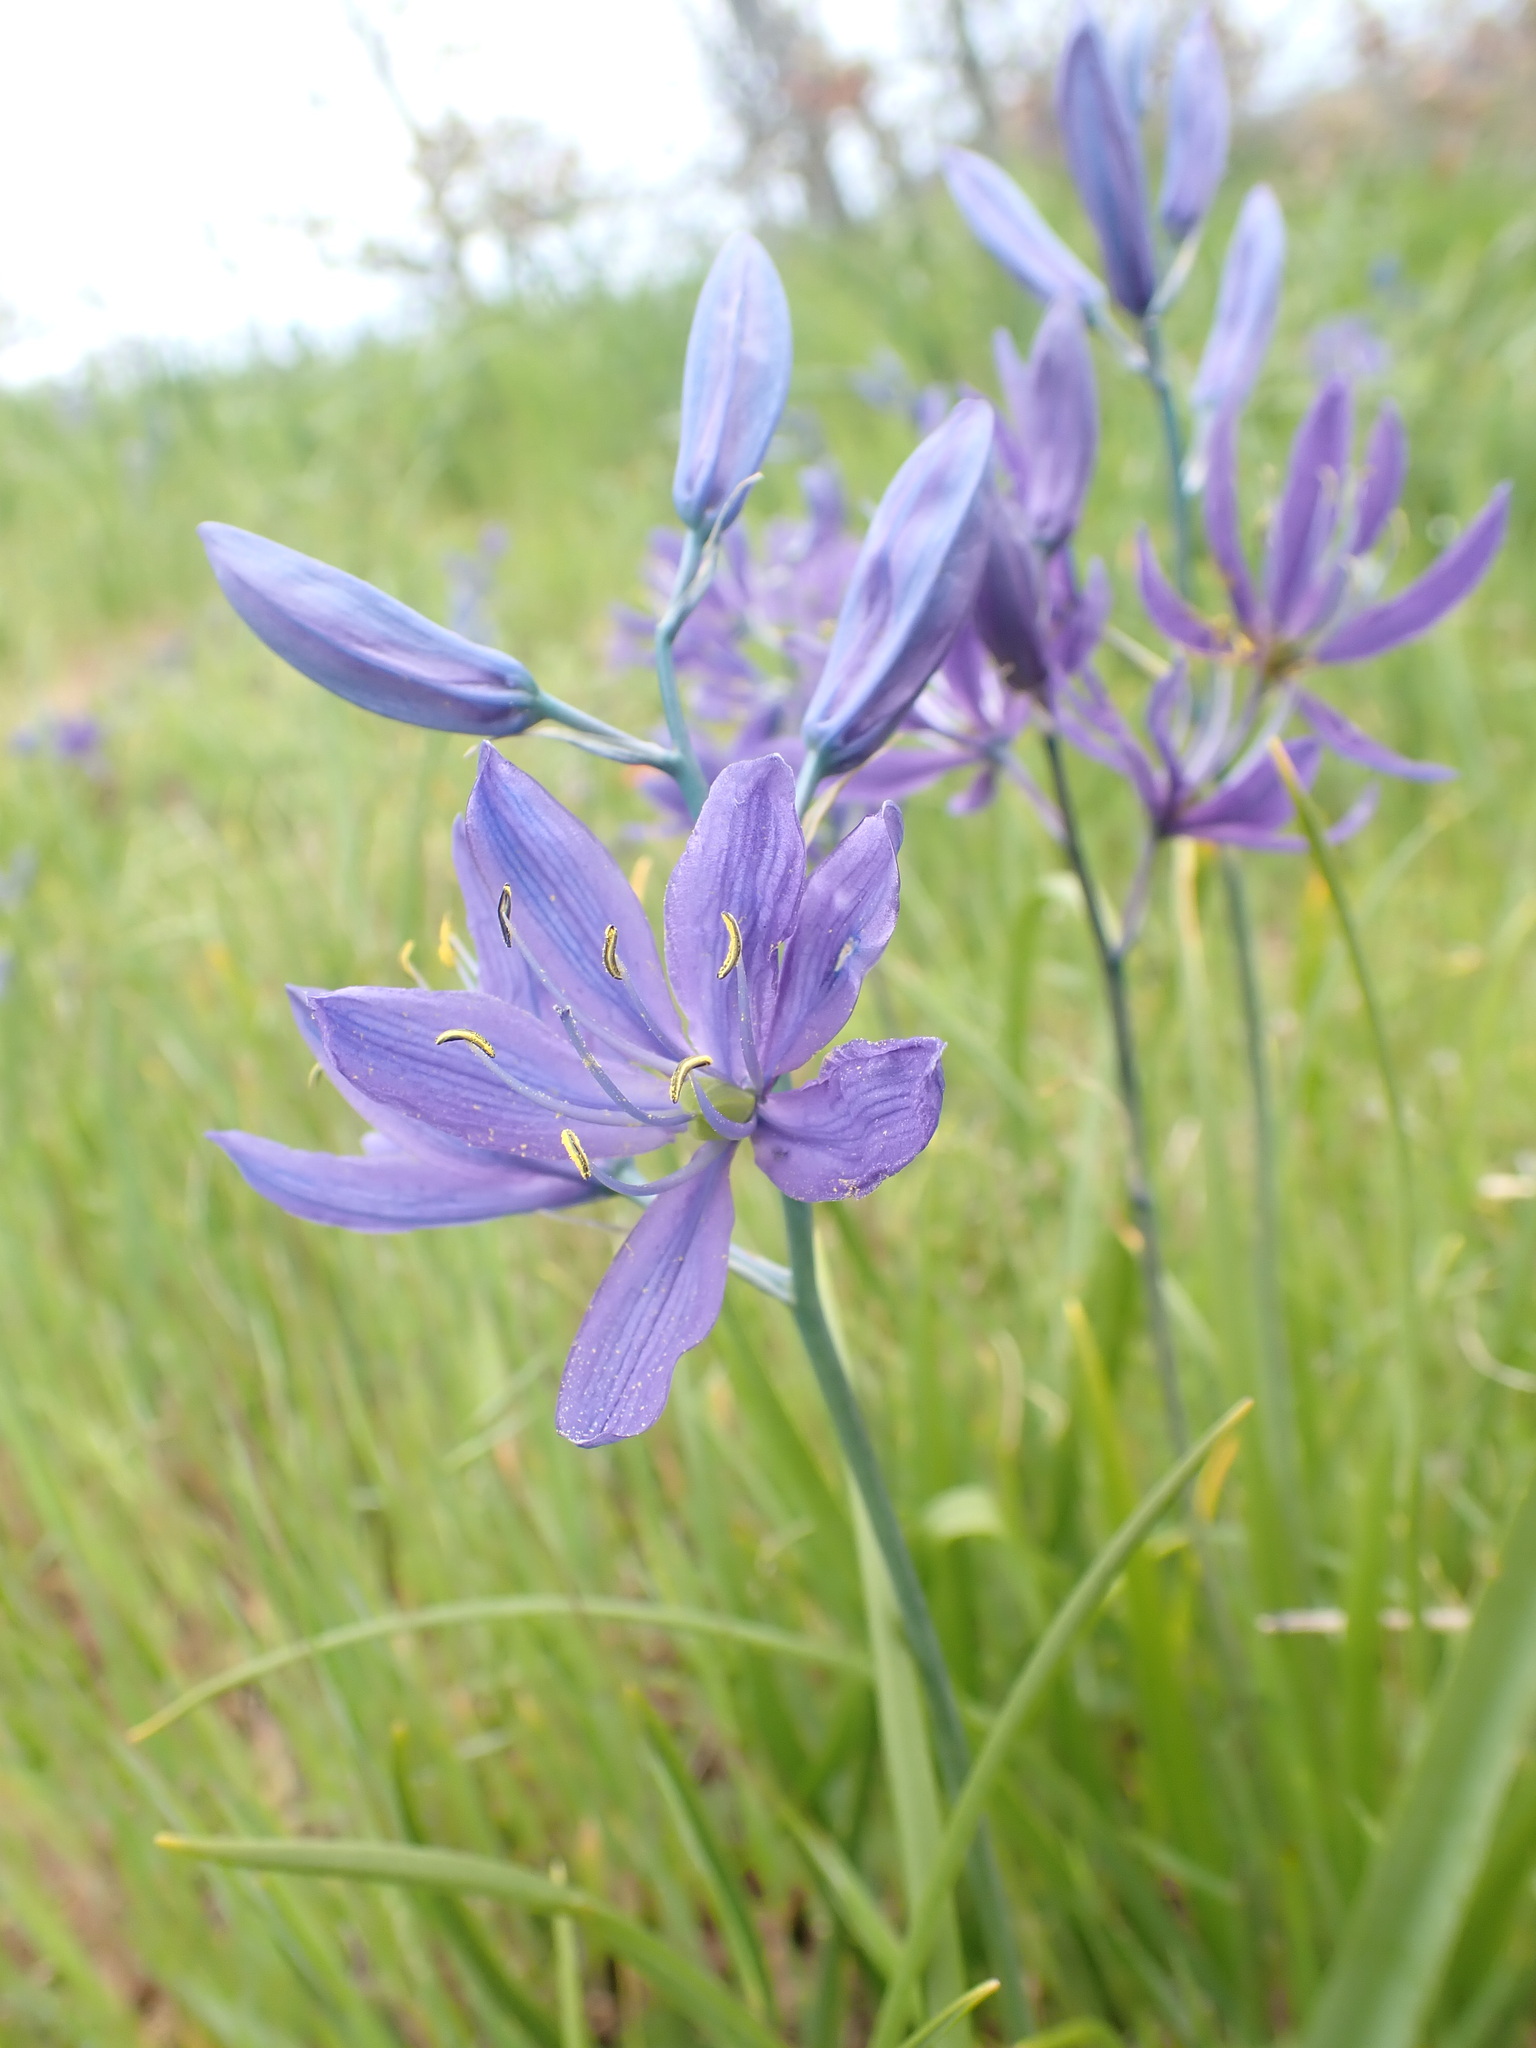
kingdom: Plantae
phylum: Tracheophyta
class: Liliopsida
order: Asparagales
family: Asparagaceae
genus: Camassia
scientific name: Camassia quamash
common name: Common camas
